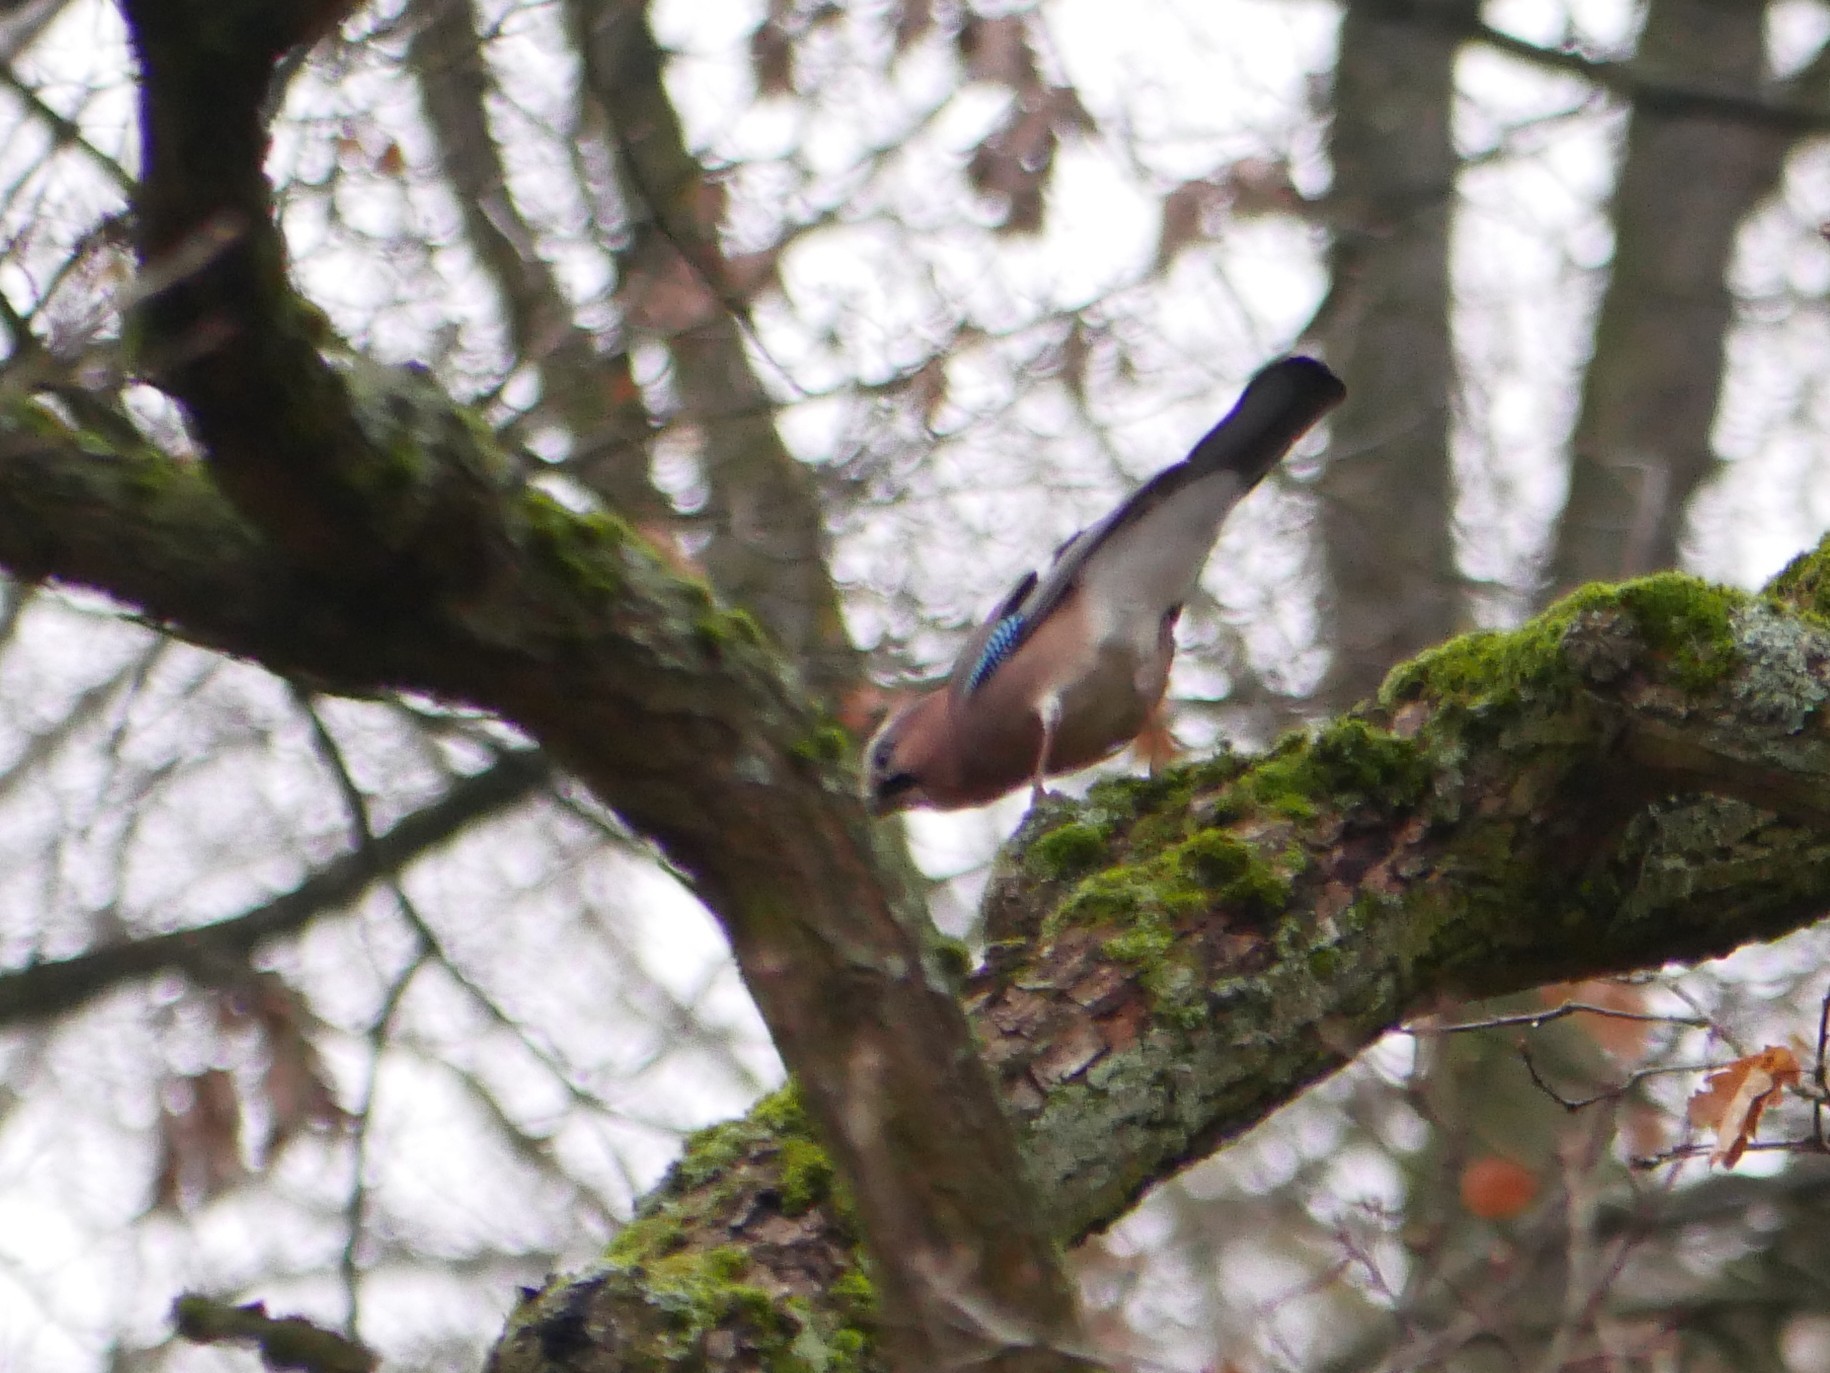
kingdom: Animalia
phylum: Chordata
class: Aves
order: Passeriformes
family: Corvidae
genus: Garrulus
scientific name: Garrulus glandarius
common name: Eurasian jay
